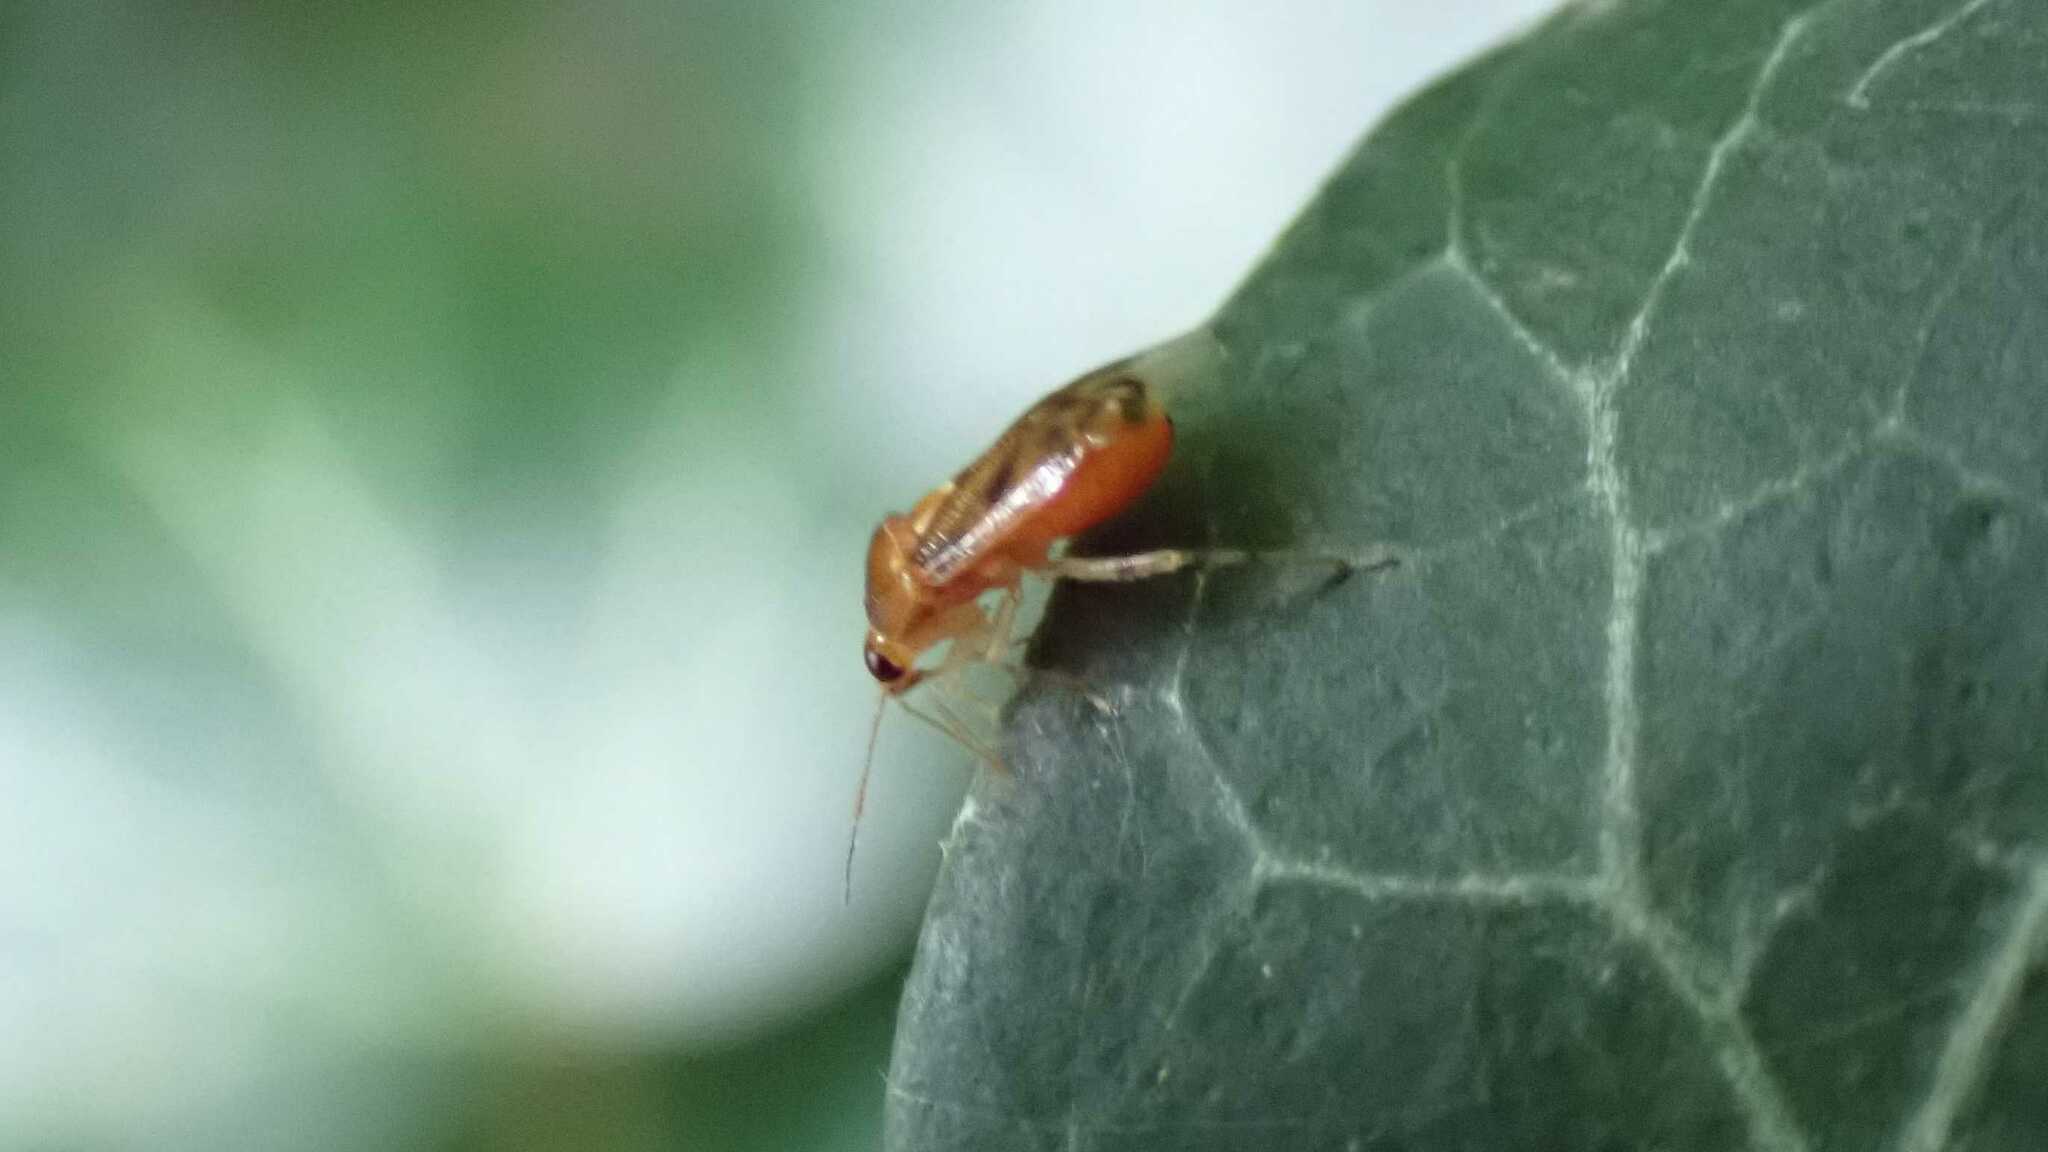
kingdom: Animalia
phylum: Arthropoda
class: Insecta
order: Hemiptera
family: Miridae
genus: Deraeocoris
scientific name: Deraeocoris lutescens
